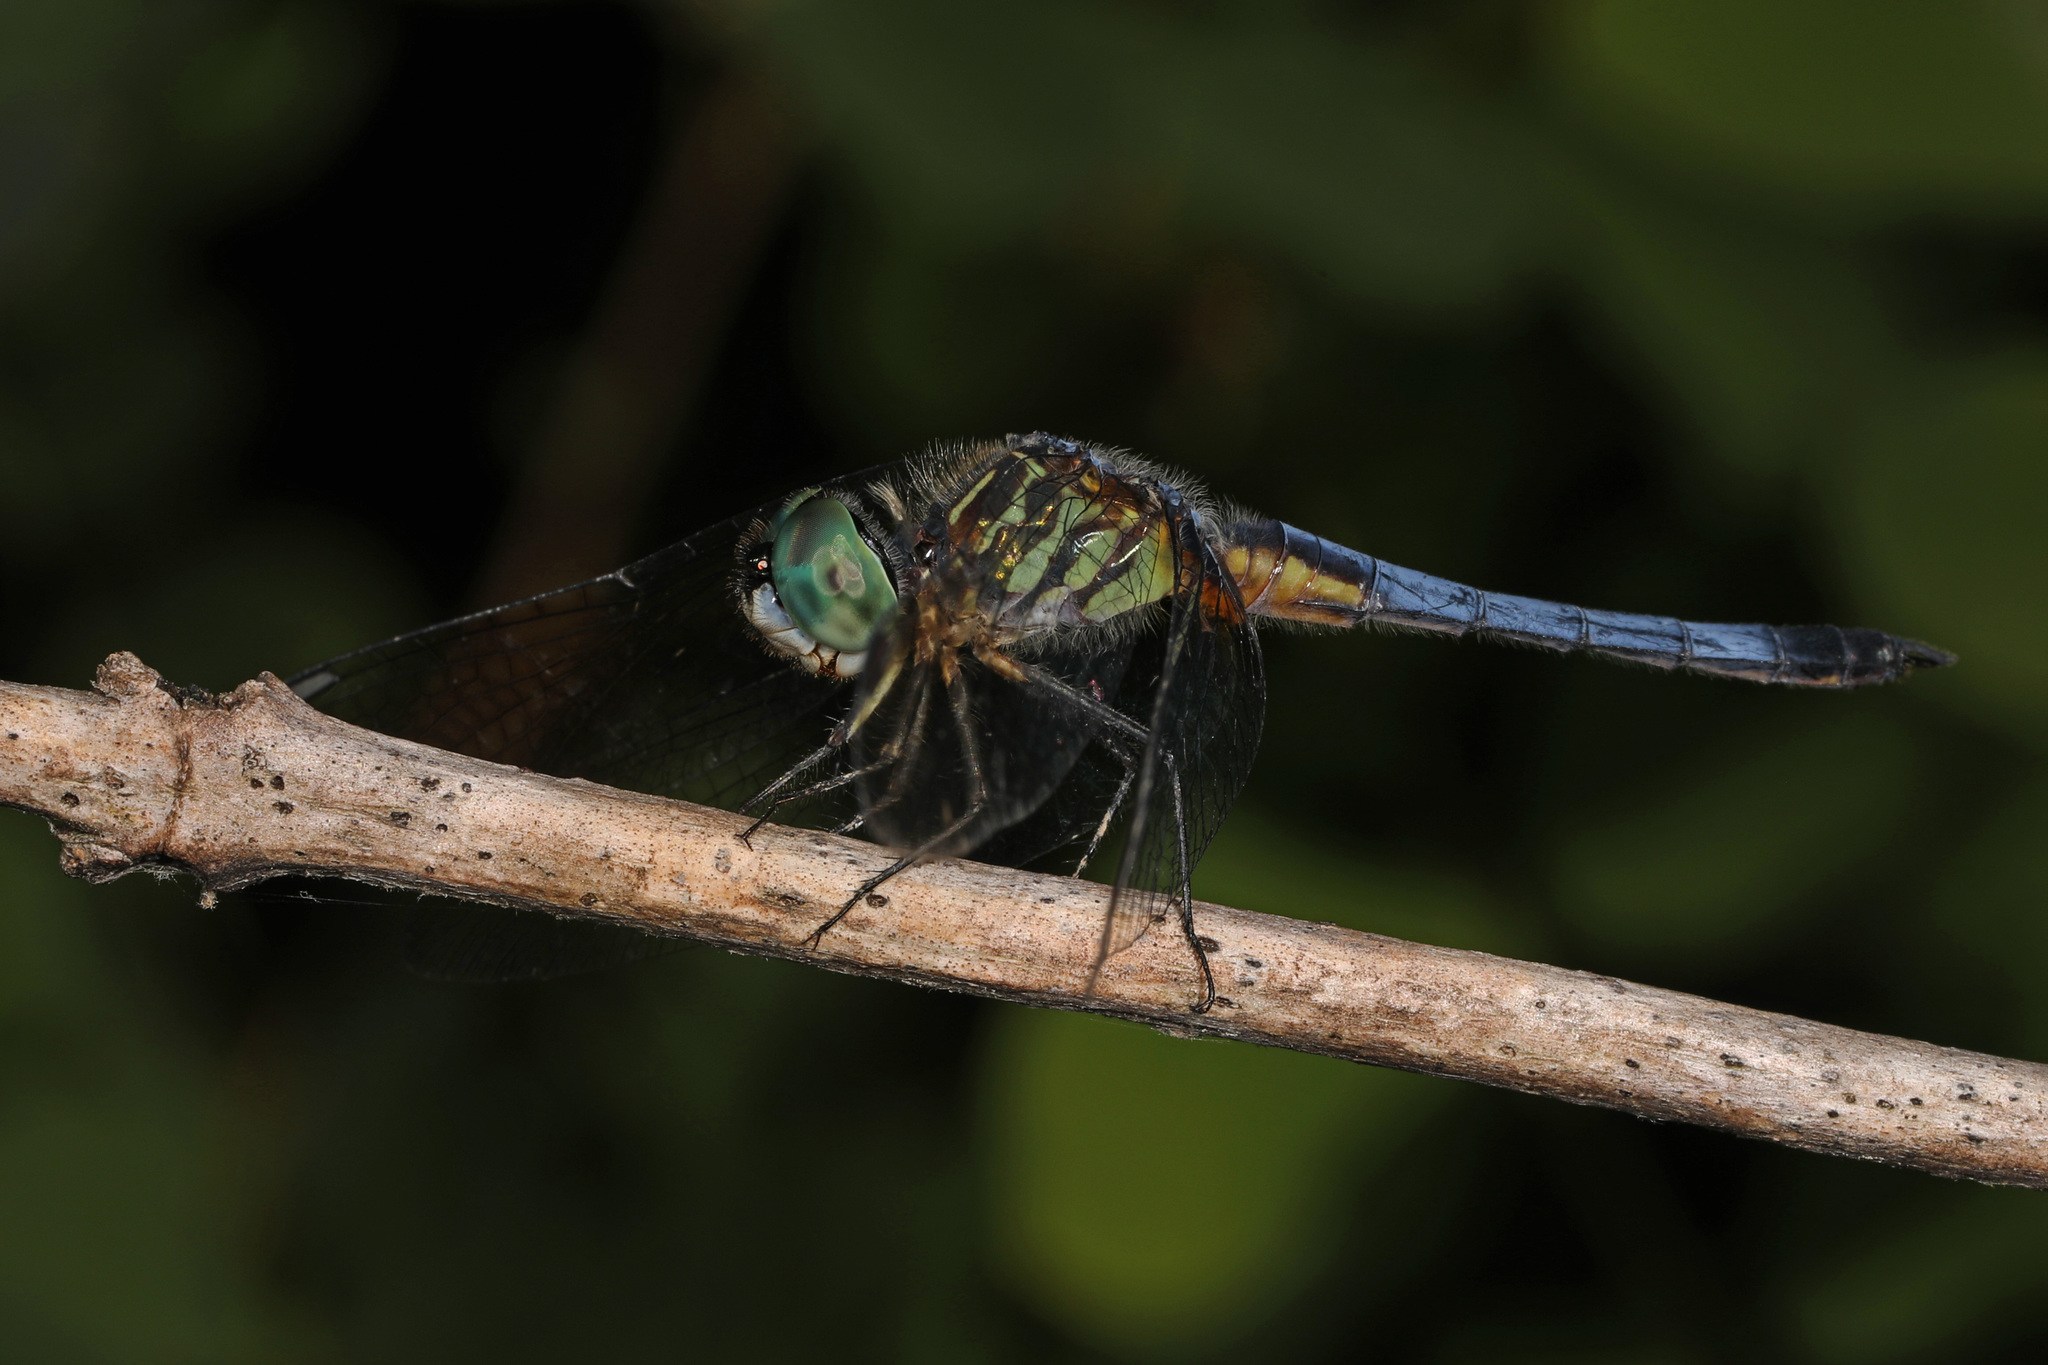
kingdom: Animalia
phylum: Arthropoda
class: Insecta
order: Odonata
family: Libellulidae
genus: Pachydiplax
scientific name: Pachydiplax longipennis
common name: Blue dasher
